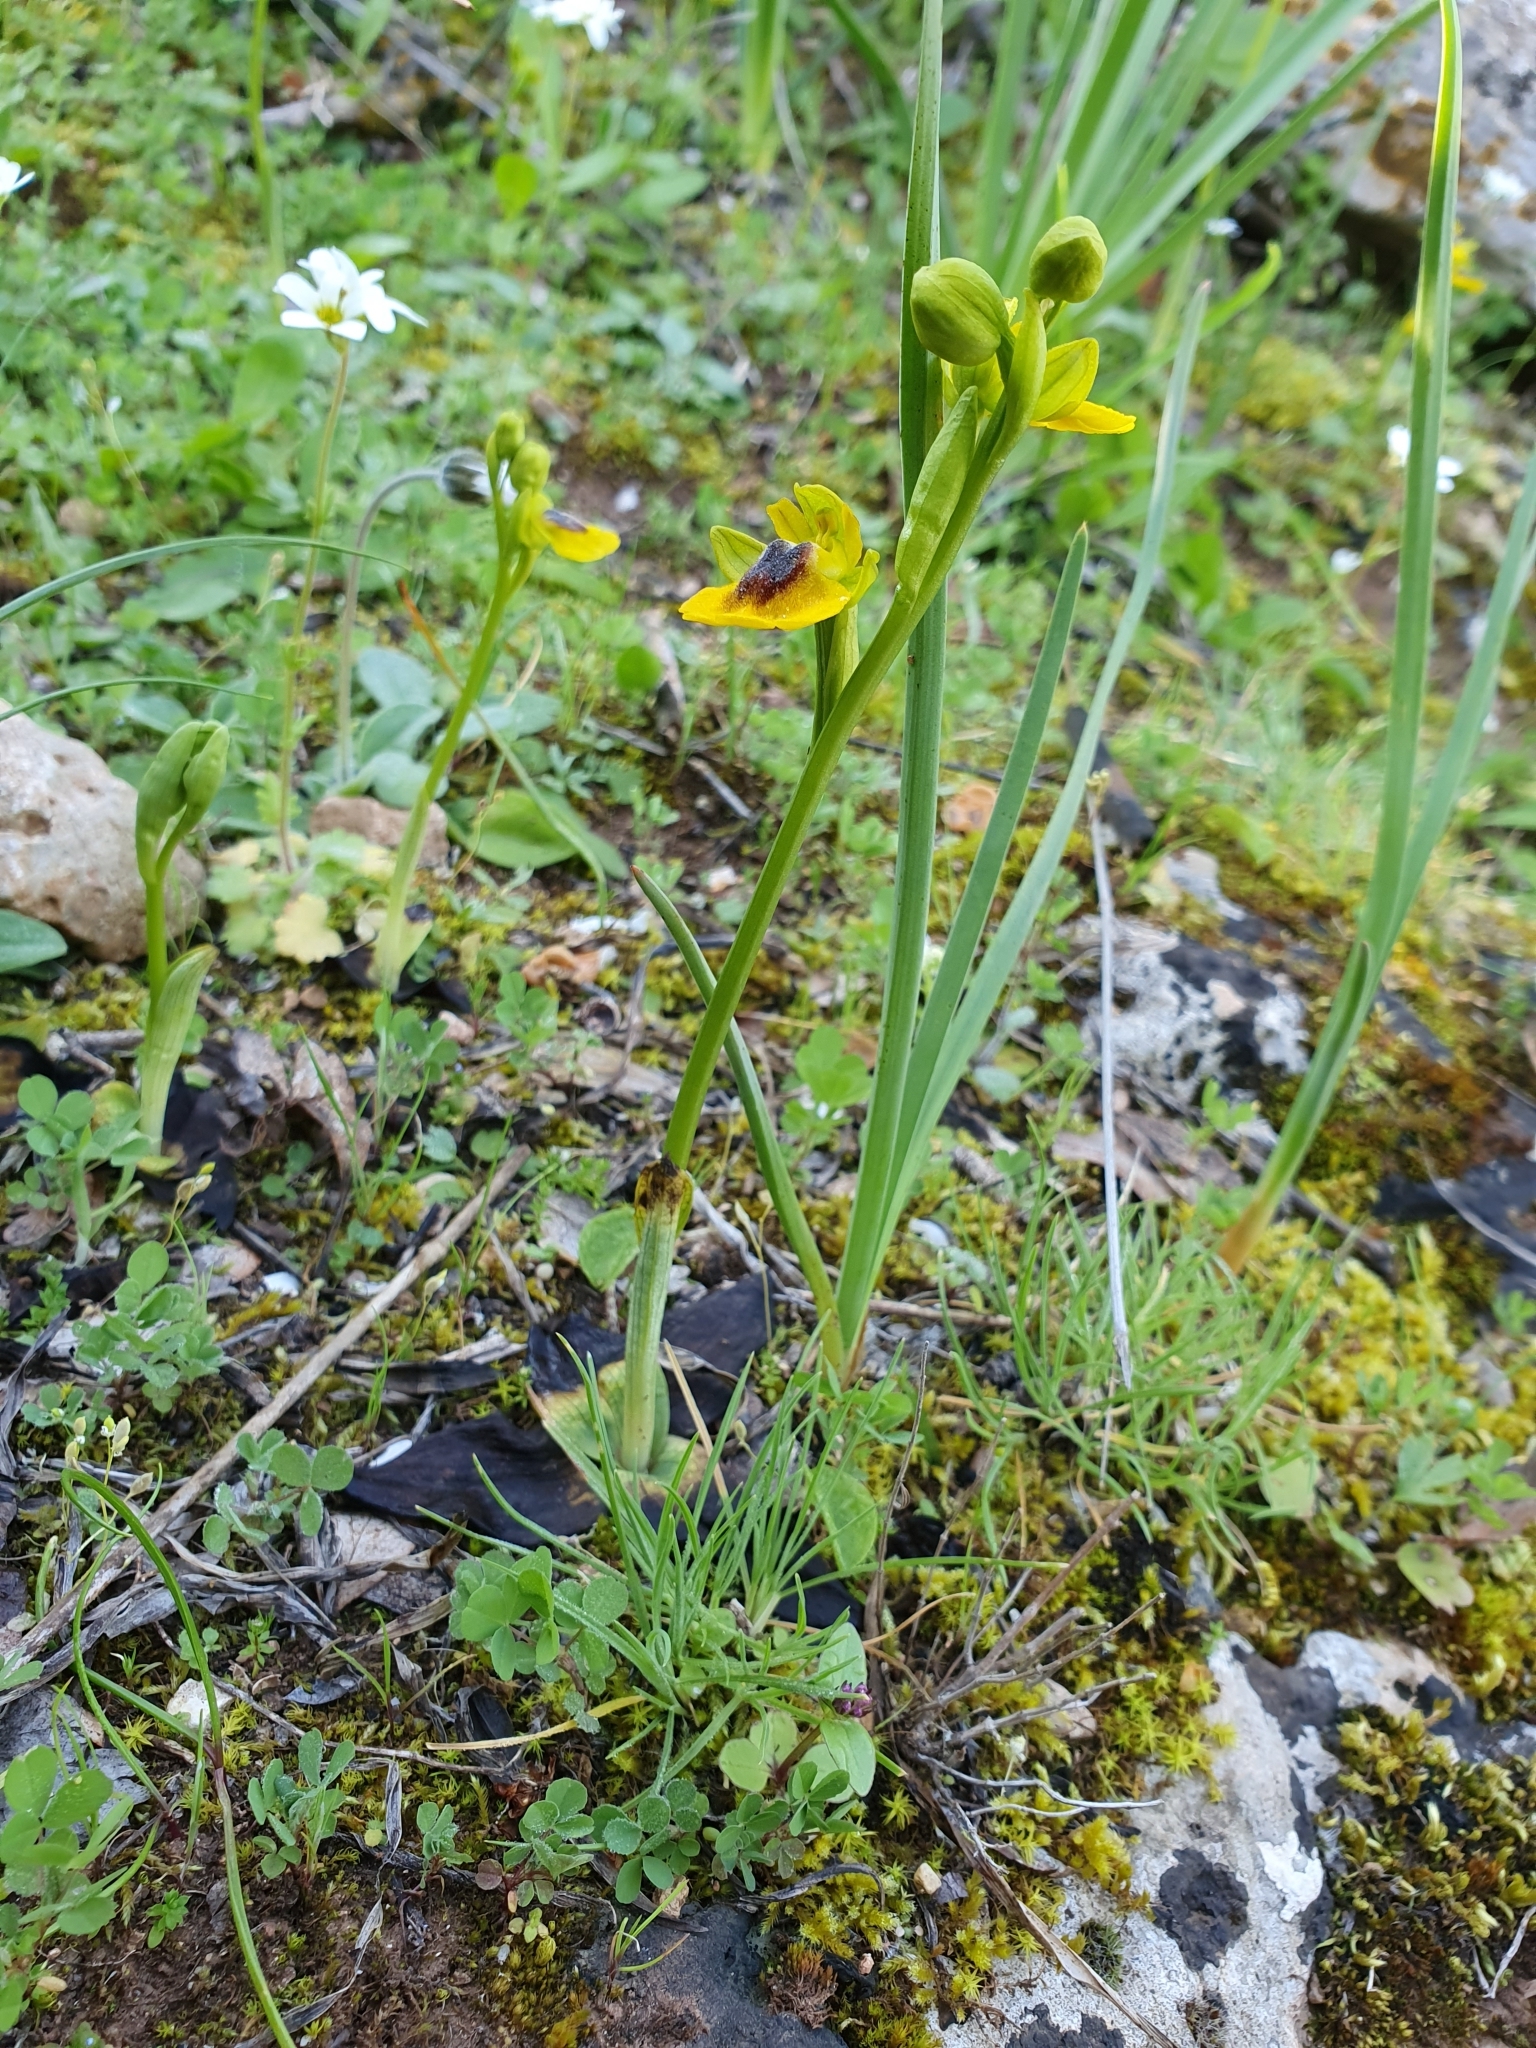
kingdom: Plantae
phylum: Tracheophyta
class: Liliopsida
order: Asparagales
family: Orchidaceae
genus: Ophrys
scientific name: Ophrys lutea
